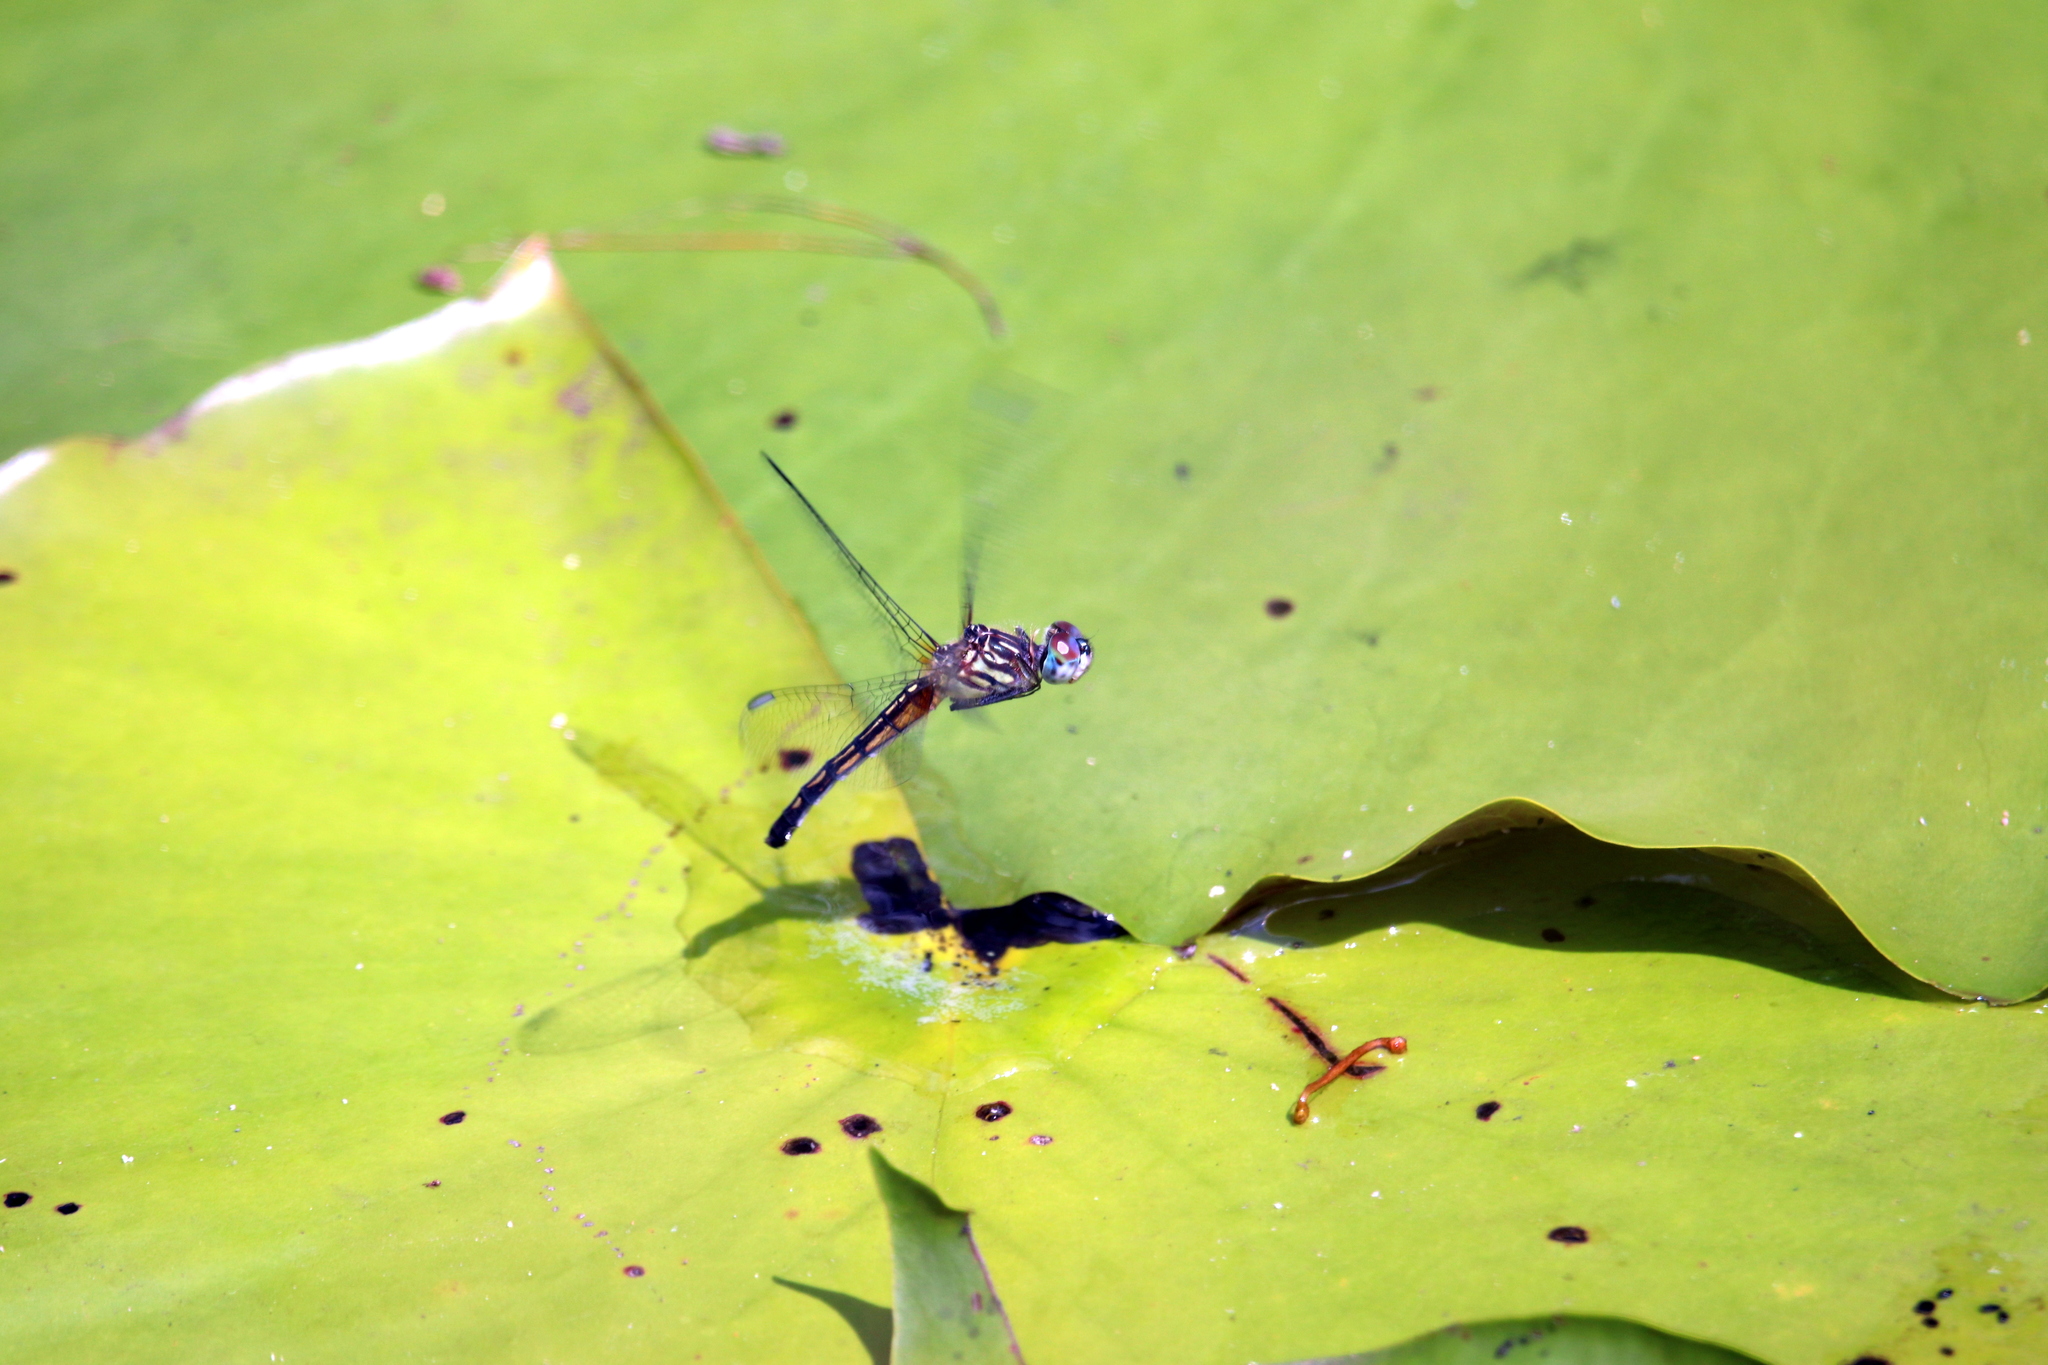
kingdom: Animalia
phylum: Arthropoda
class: Insecta
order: Odonata
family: Libellulidae
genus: Pachydiplax
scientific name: Pachydiplax longipennis
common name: Blue dasher
